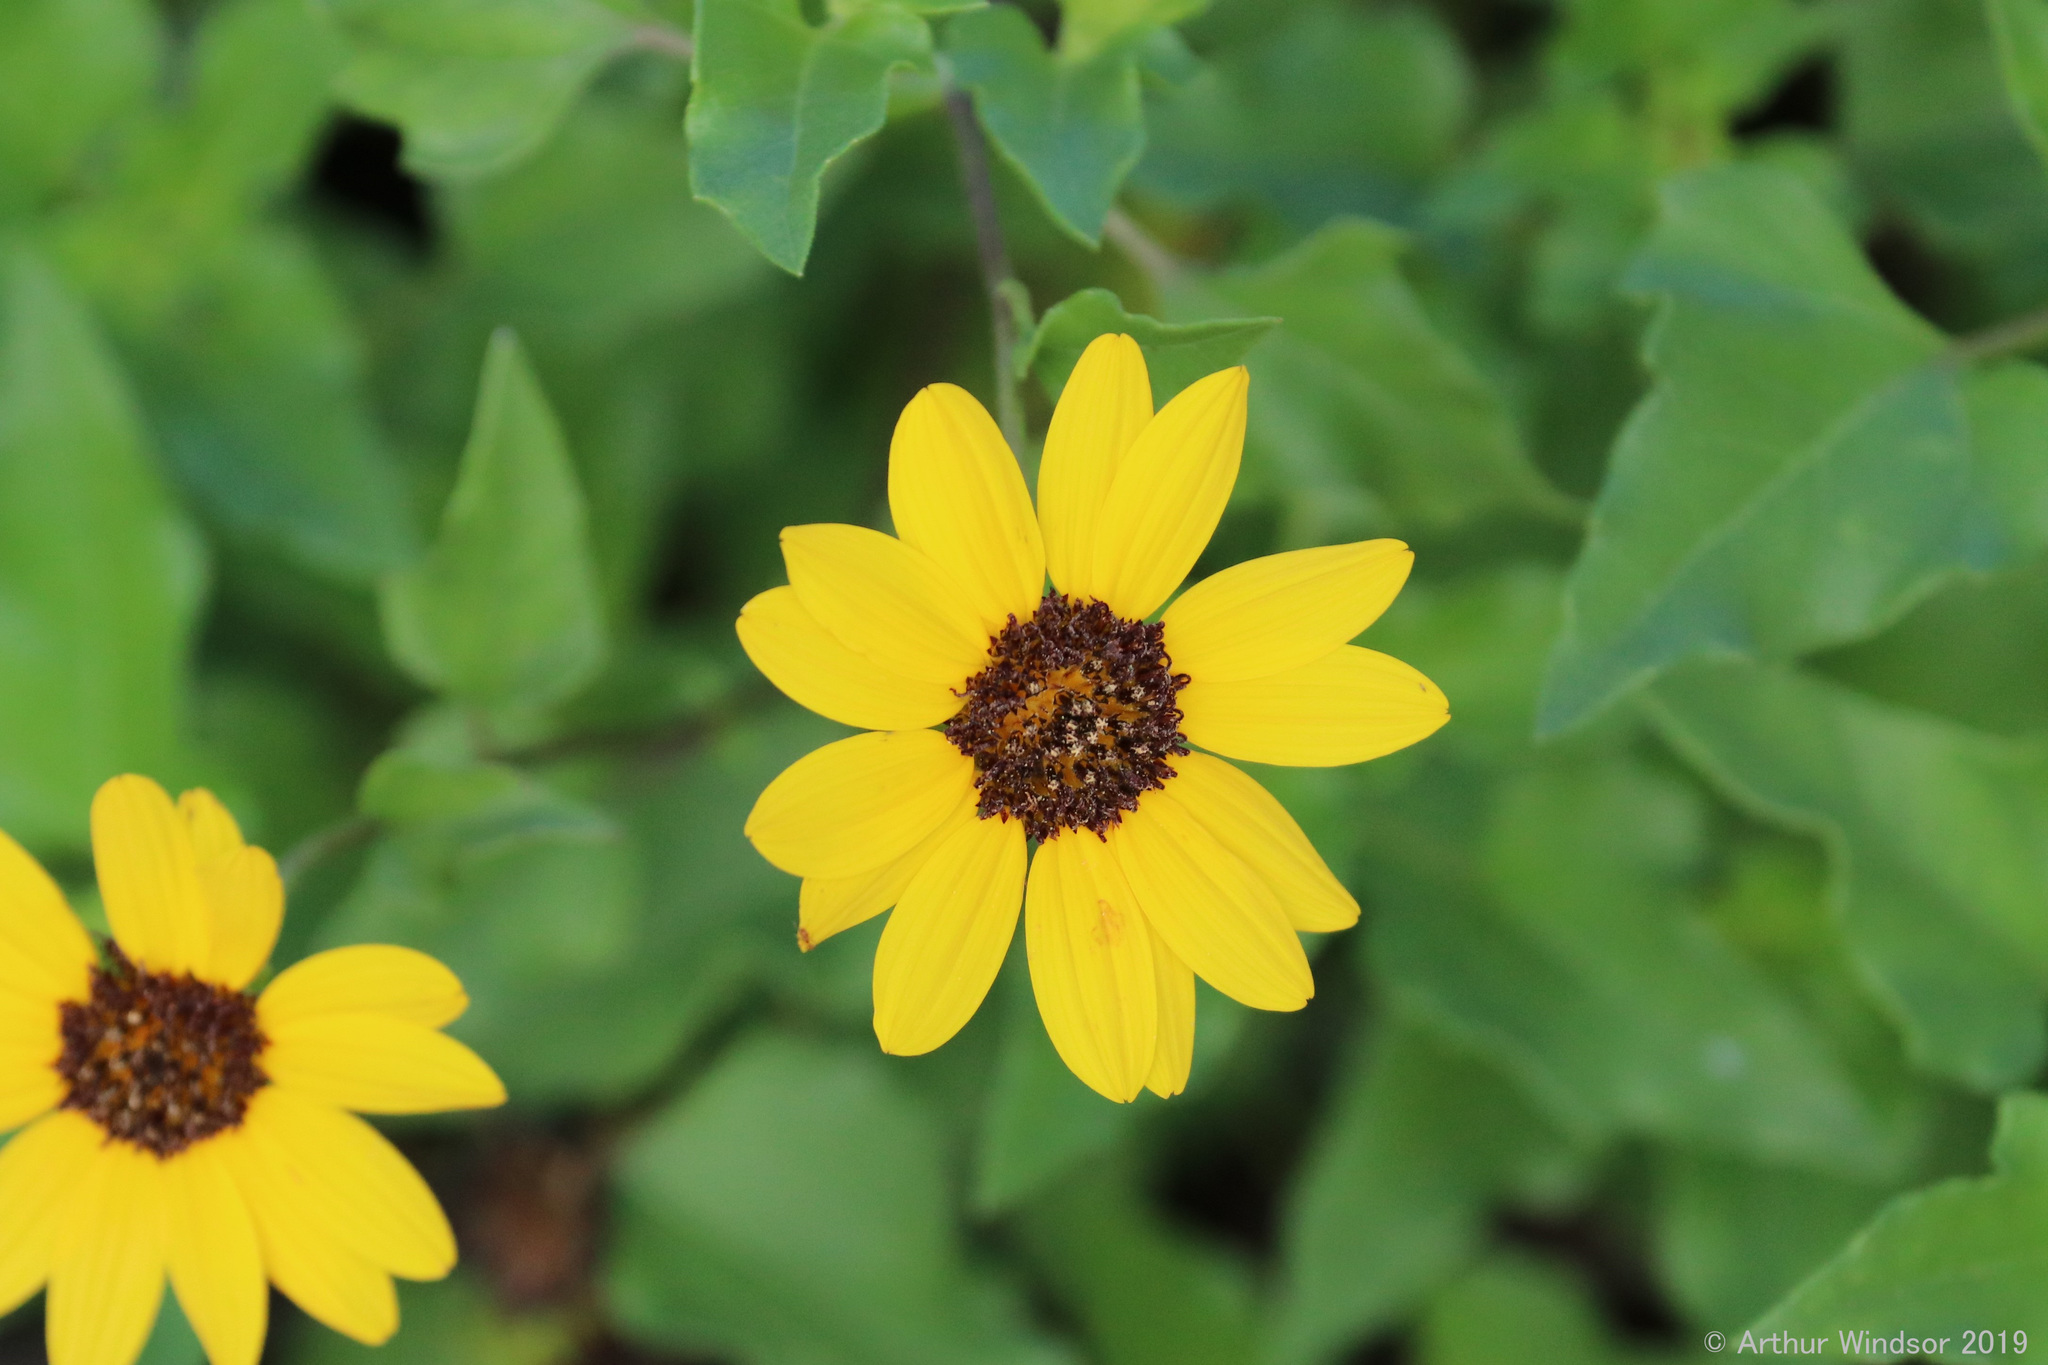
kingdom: Plantae
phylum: Tracheophyta
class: Magnoliopsida
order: Asterales
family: Asteraceae
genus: Helianthus
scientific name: Helianthus debilis
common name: Weak sunflower
